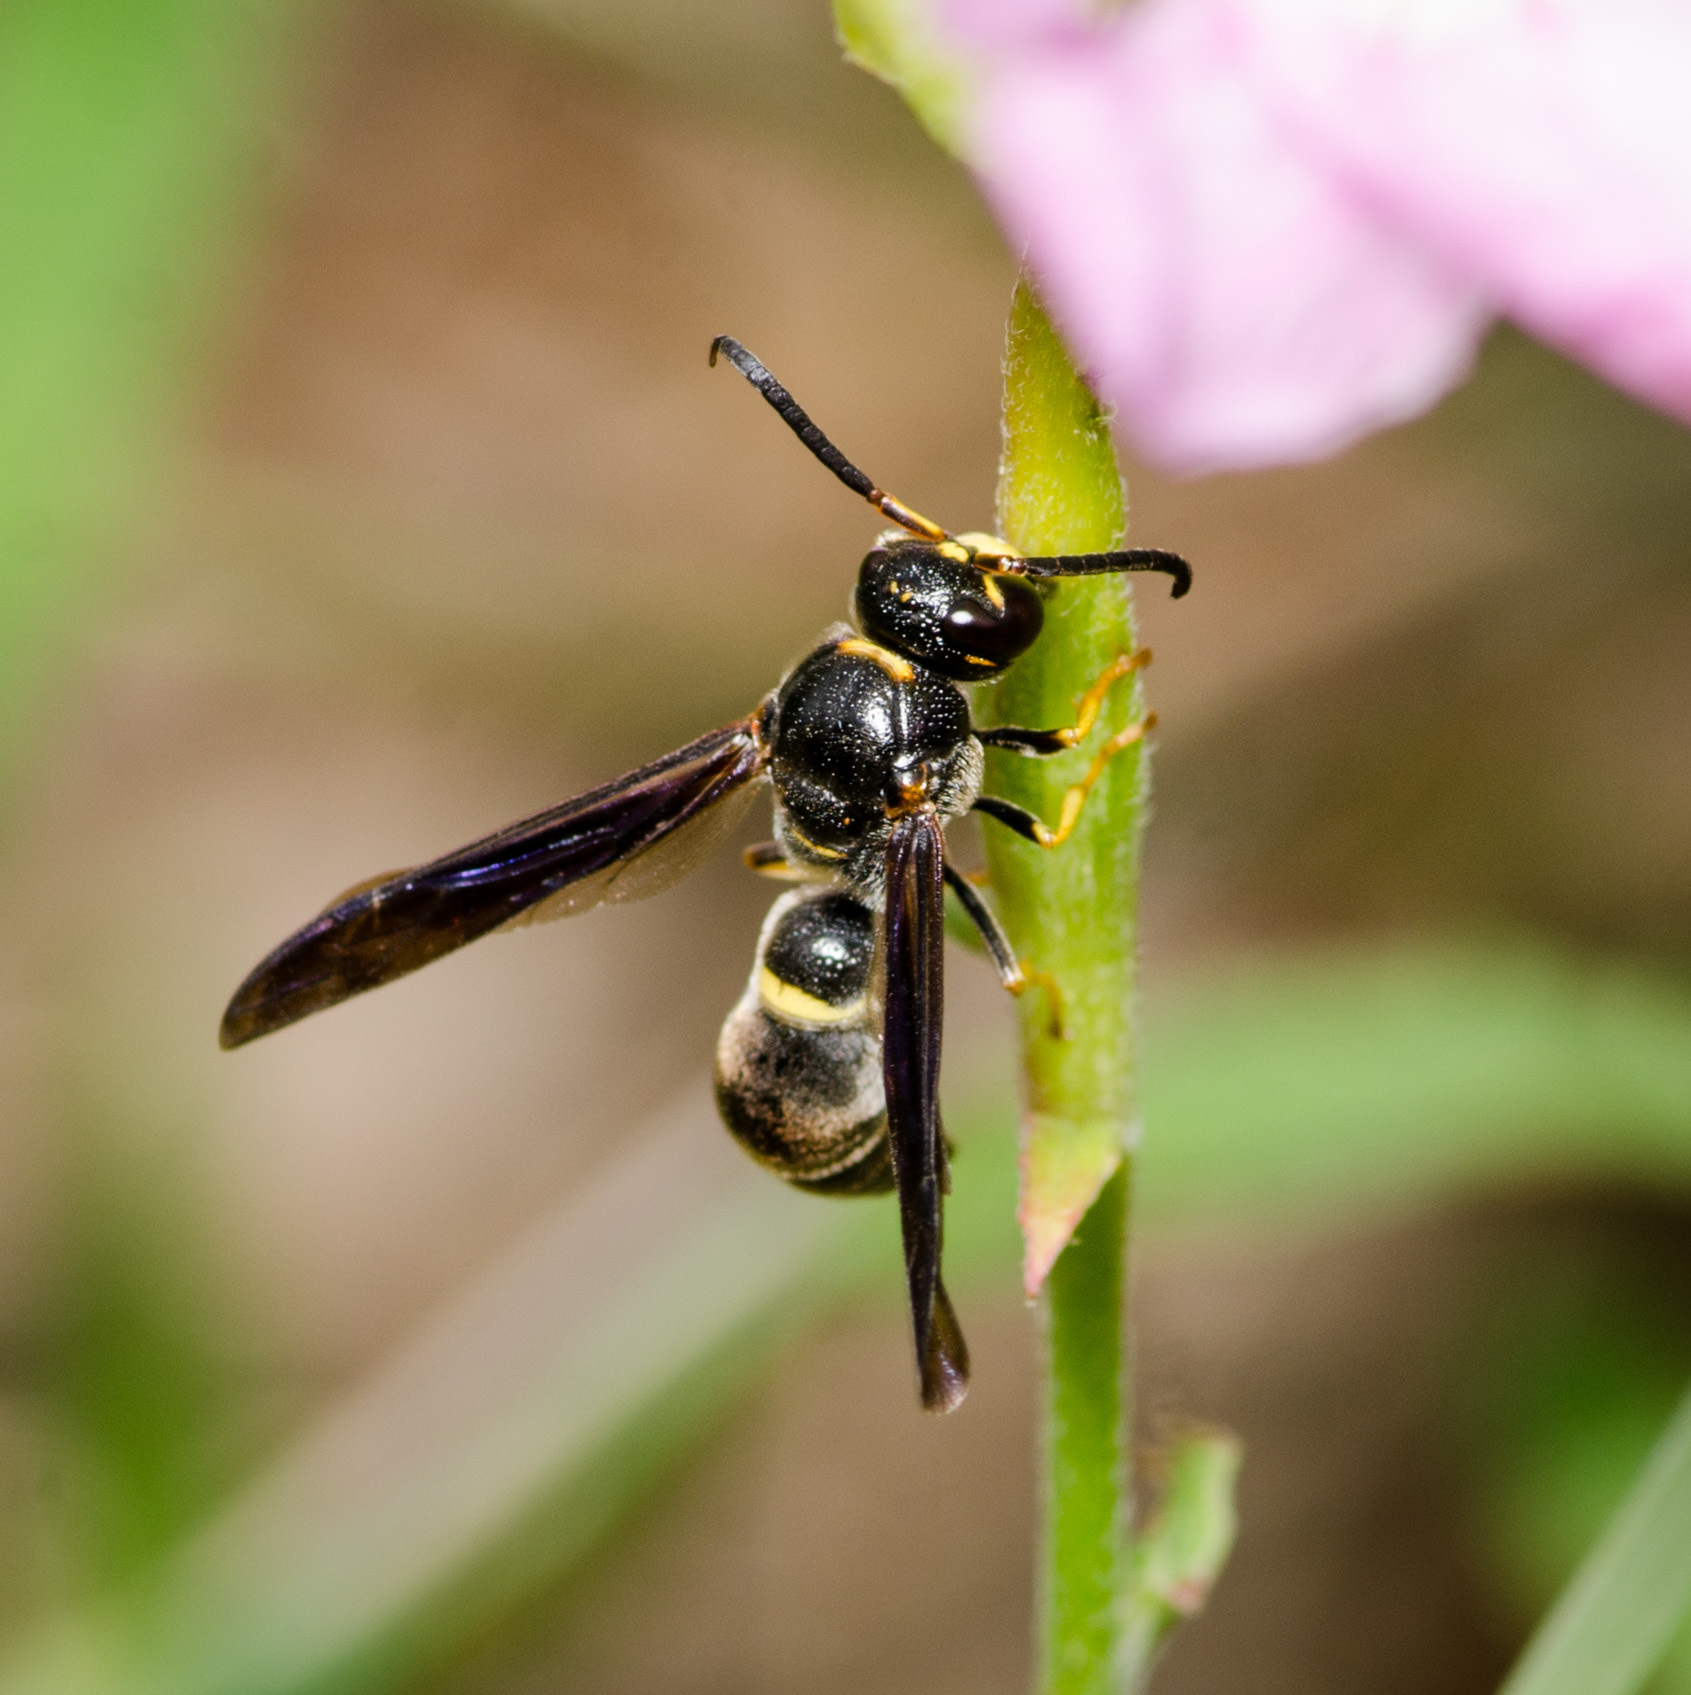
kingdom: Animalia
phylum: Arthropoda
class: Insecta
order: Hymenoptera
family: Eumenidae
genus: Parazumia
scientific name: Parazumia symmorpha
